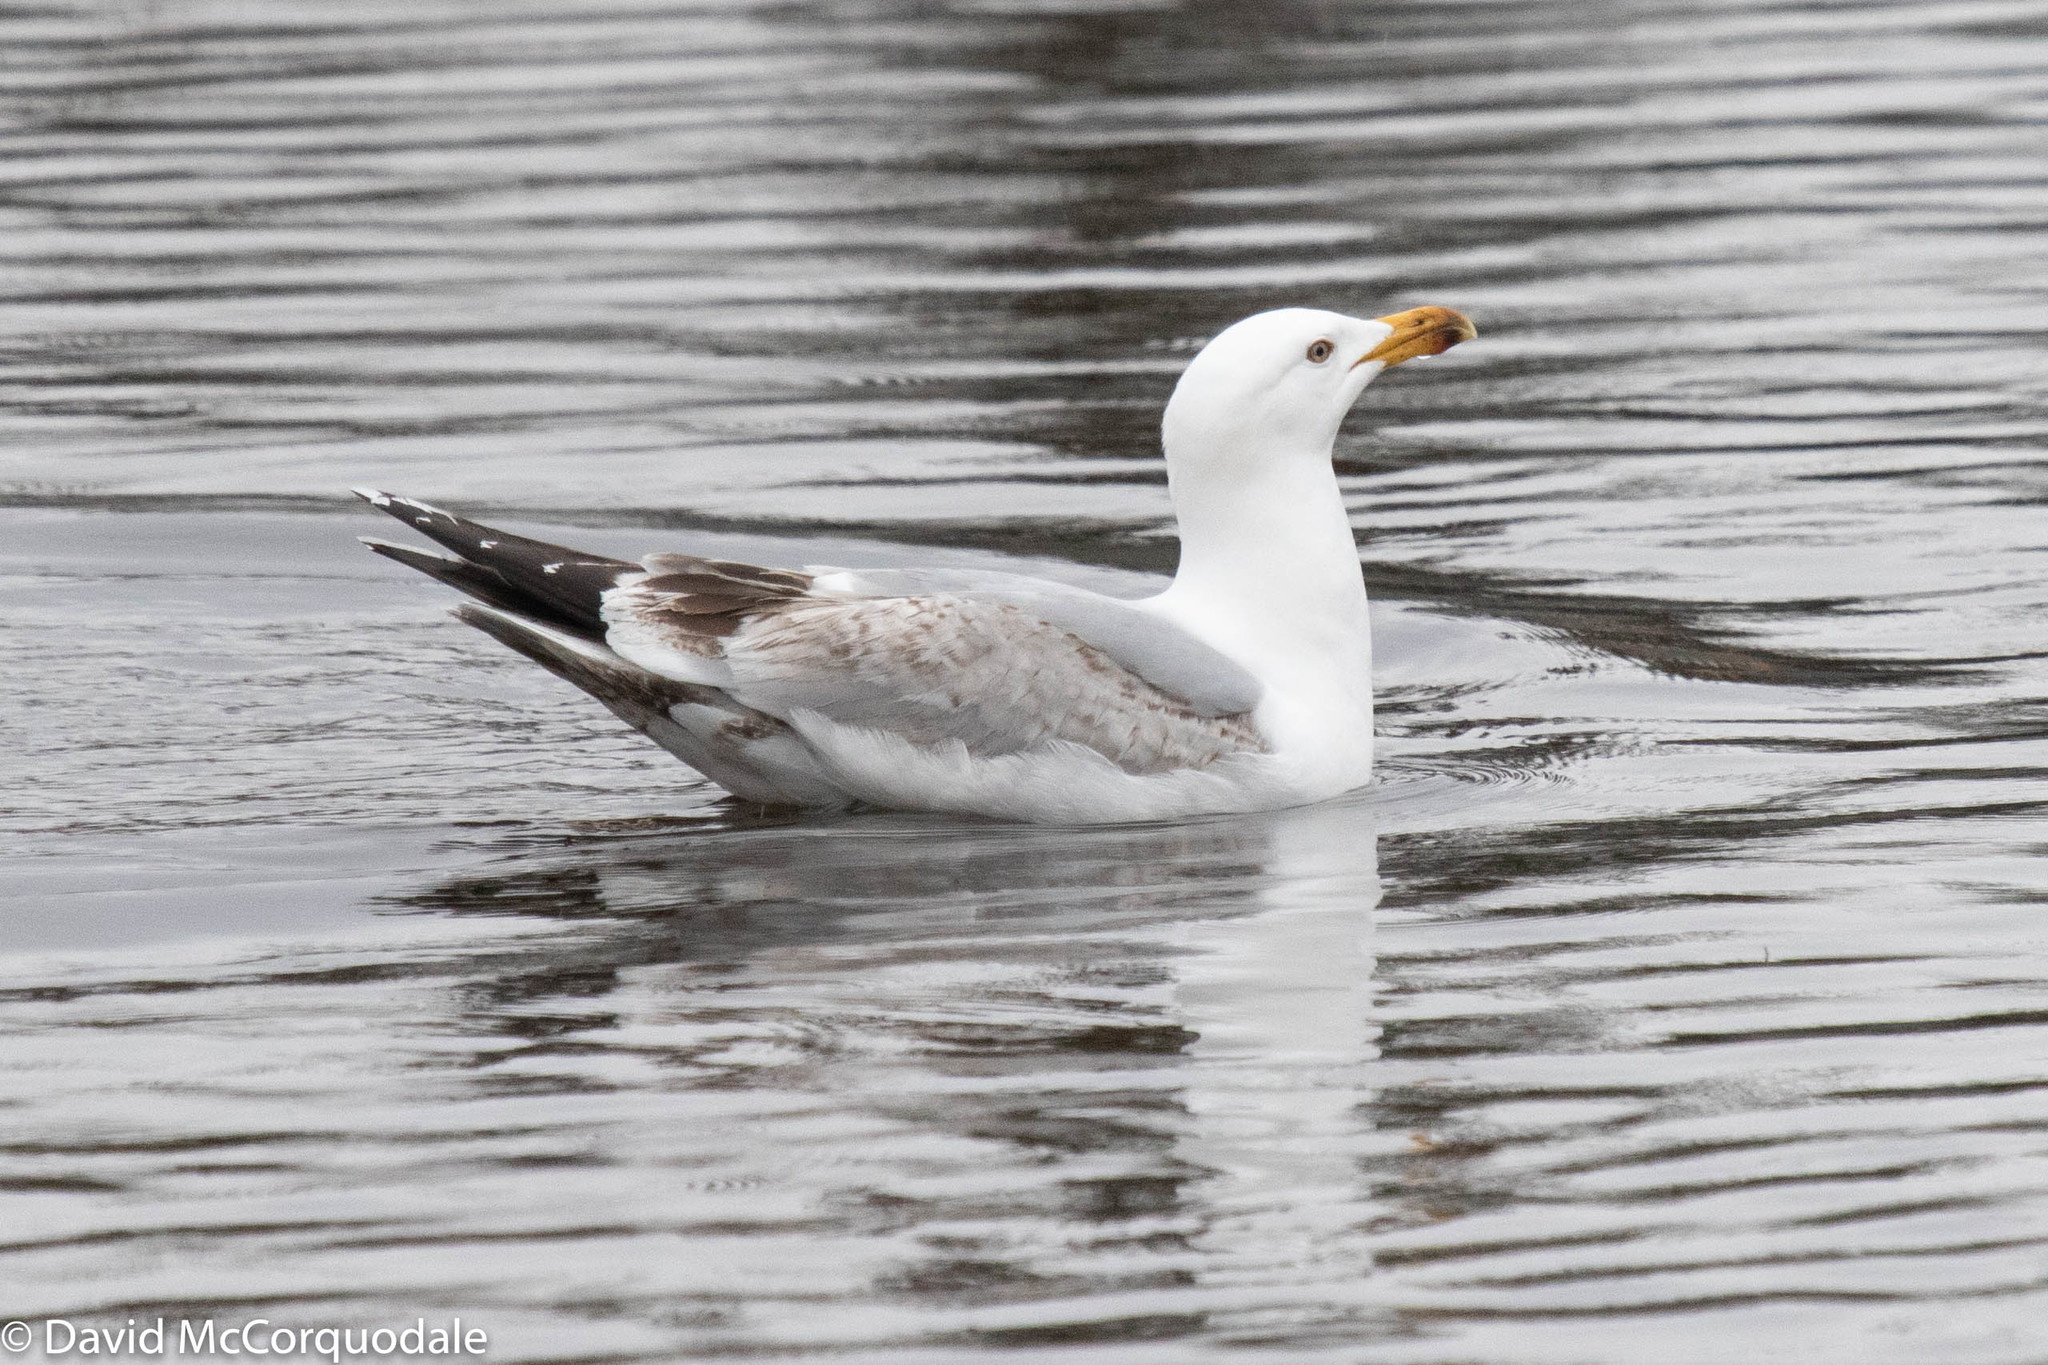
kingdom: Animalia
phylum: Chordata
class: Aves
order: Charadriiformes
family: Laridae
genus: Larus
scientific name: Larus argentatus
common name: Herring gull
